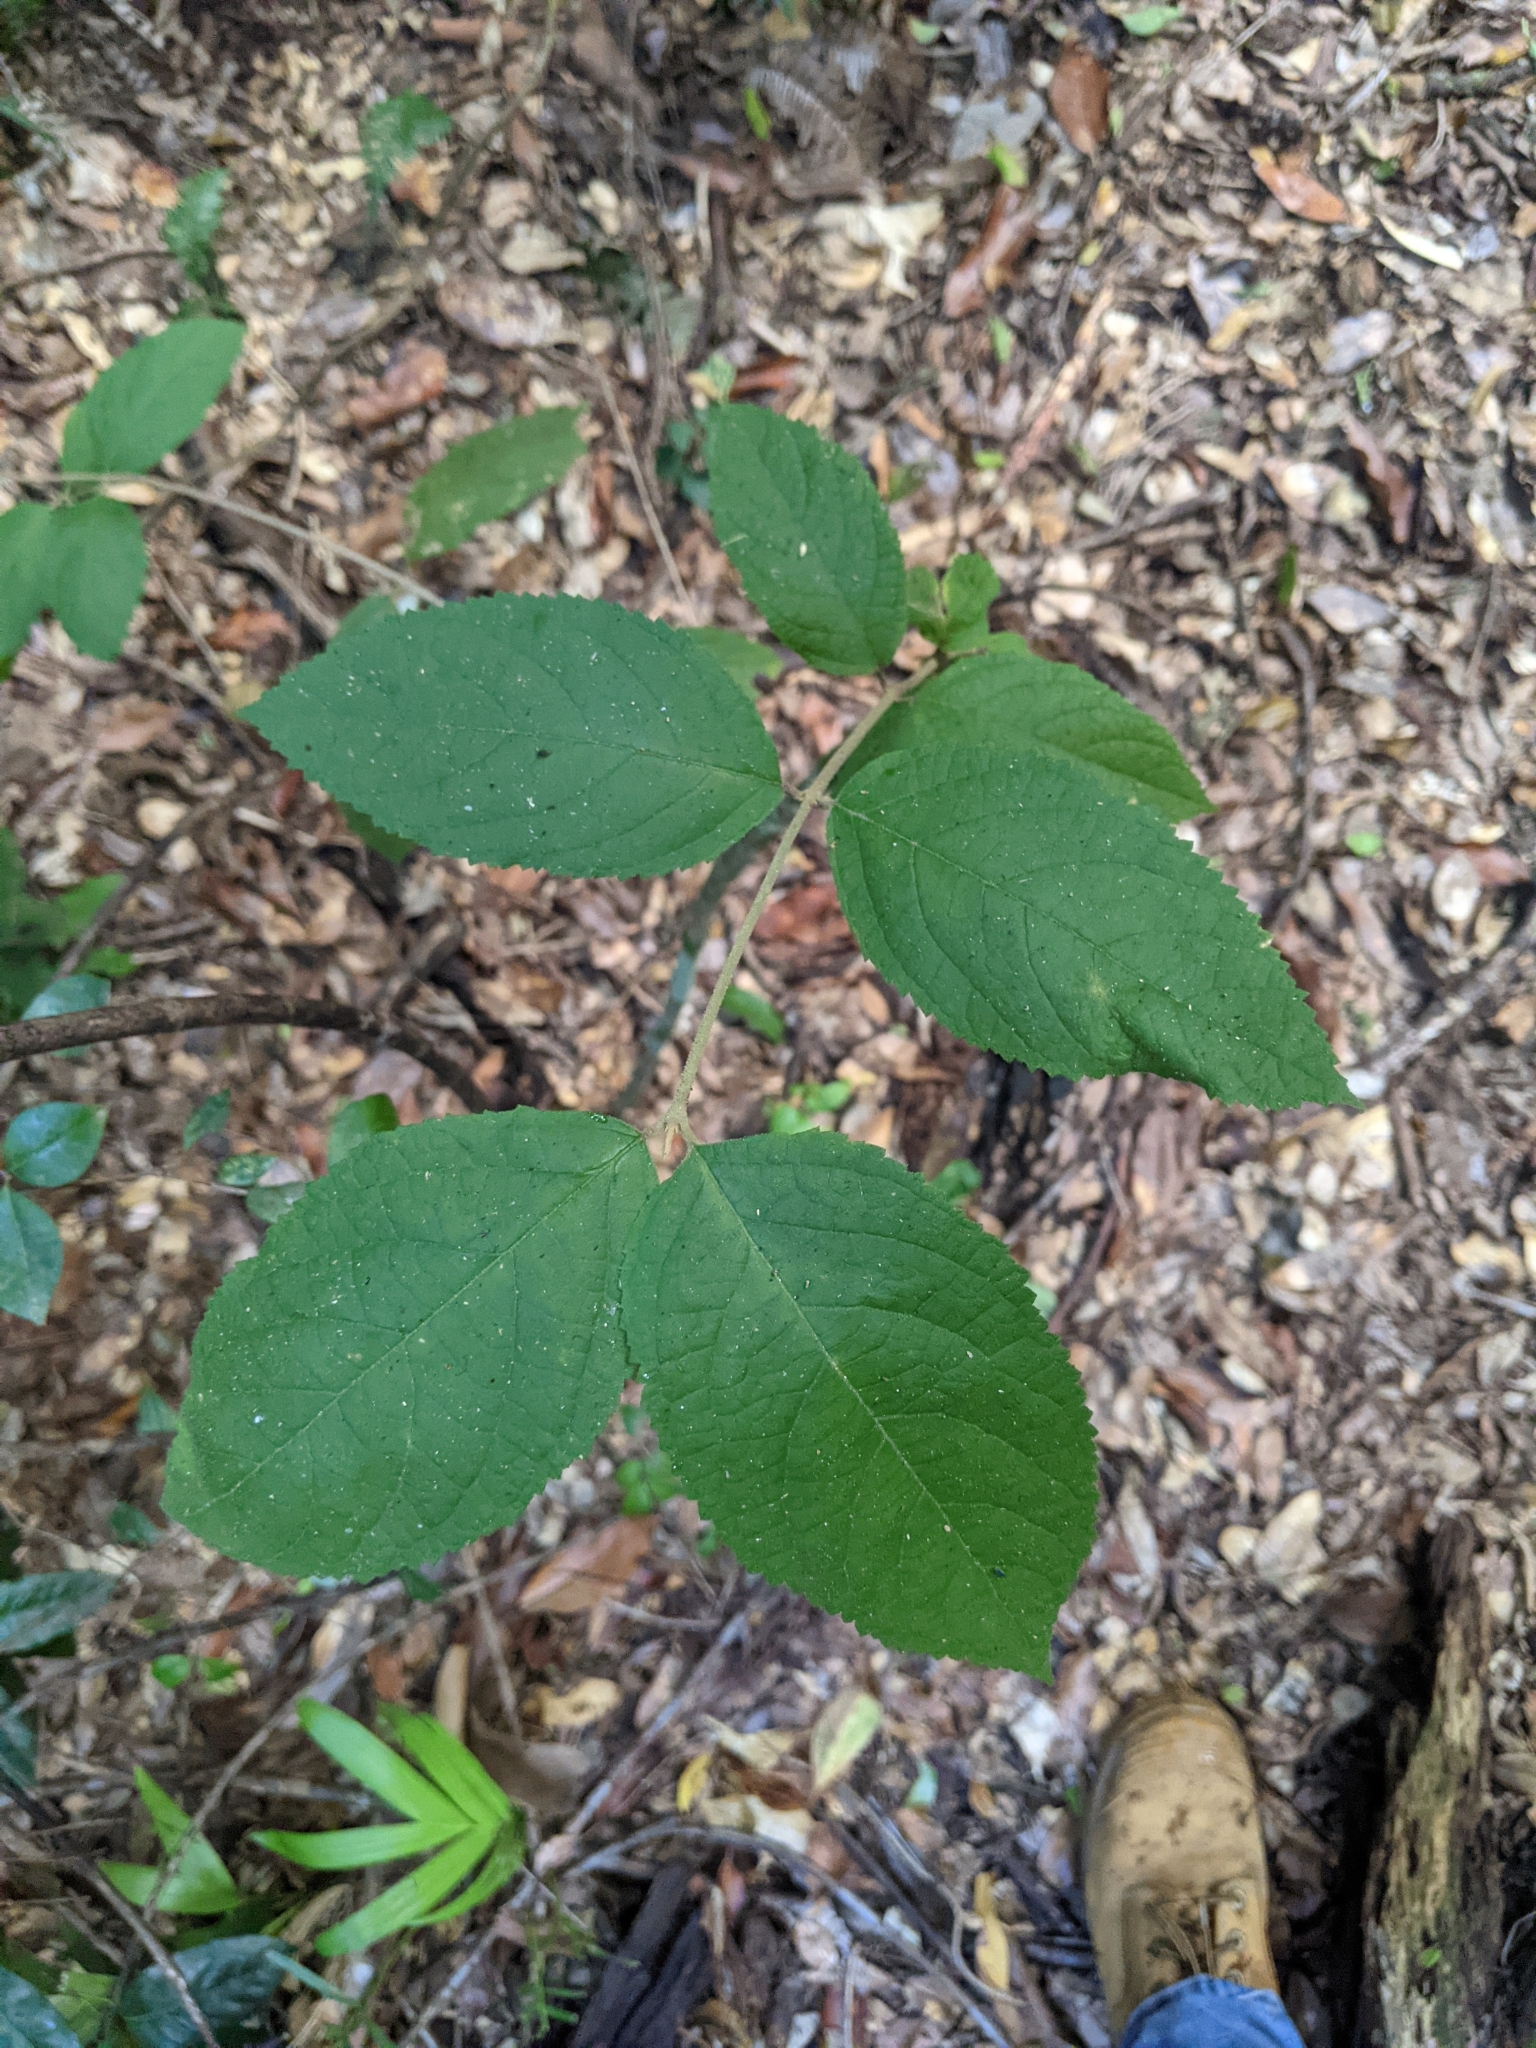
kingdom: Plantae
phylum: Tracheophyta
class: Magnoliopsida
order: Lamiales
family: Lamiaceae
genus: Callicarpa
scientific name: Callicarpa pedunculata
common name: Velvetleaf
